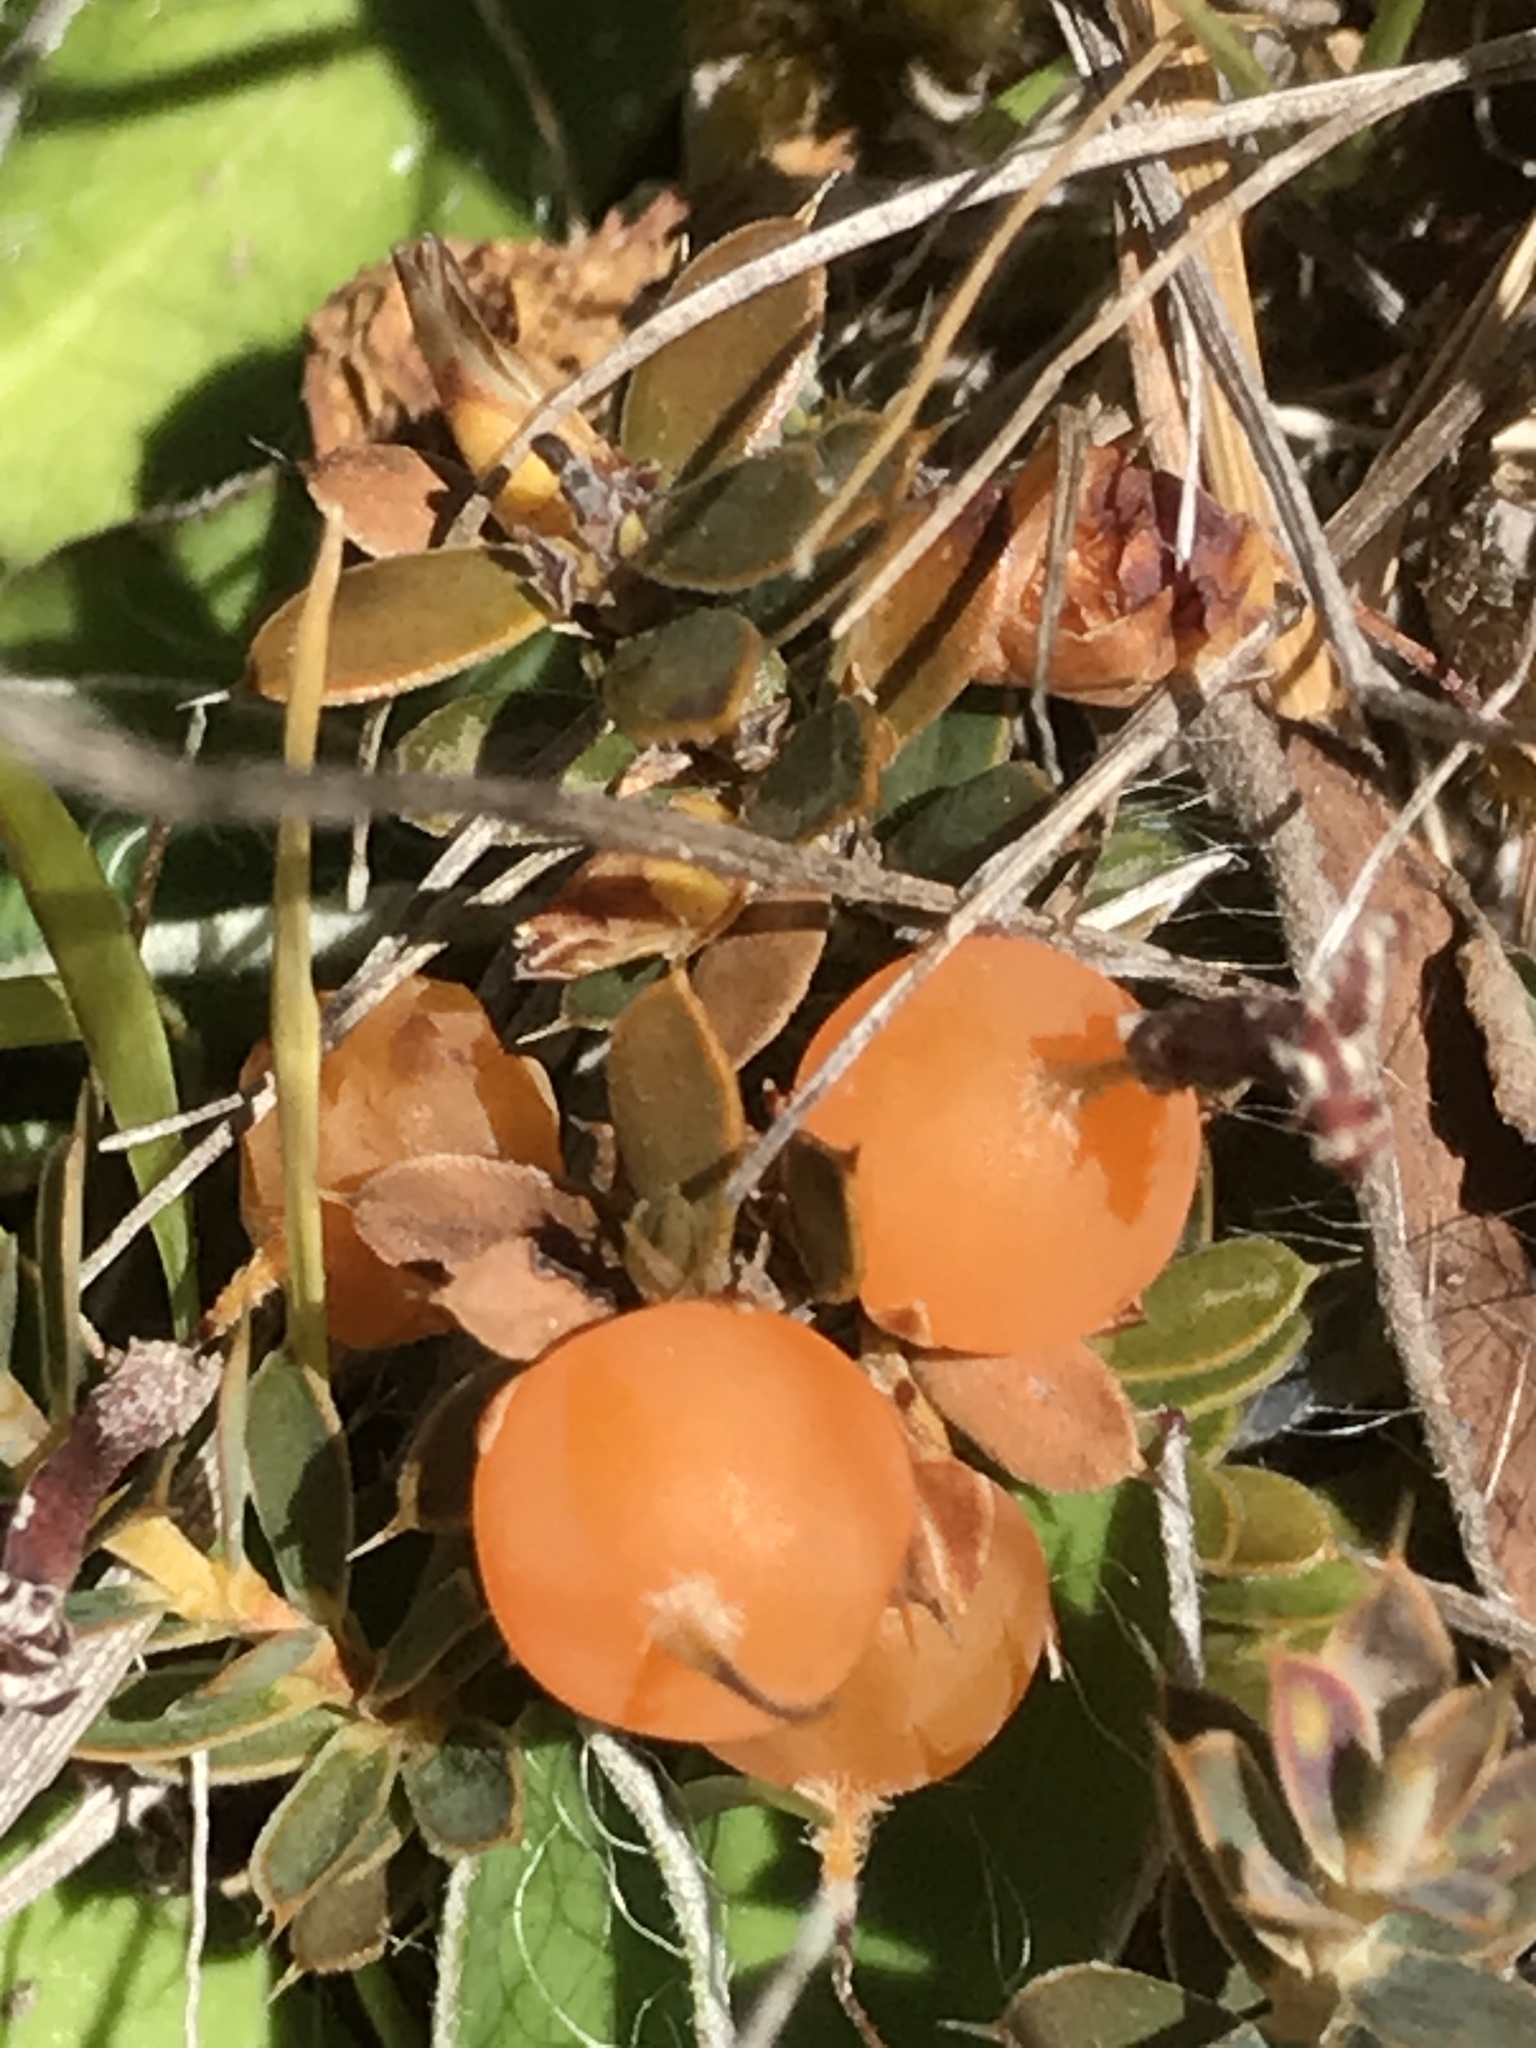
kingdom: Plantae
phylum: Tracheophyta
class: Magnoliopsida
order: Ericales
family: Ericaceae
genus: Styphelia
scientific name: Styphelia nesophila
